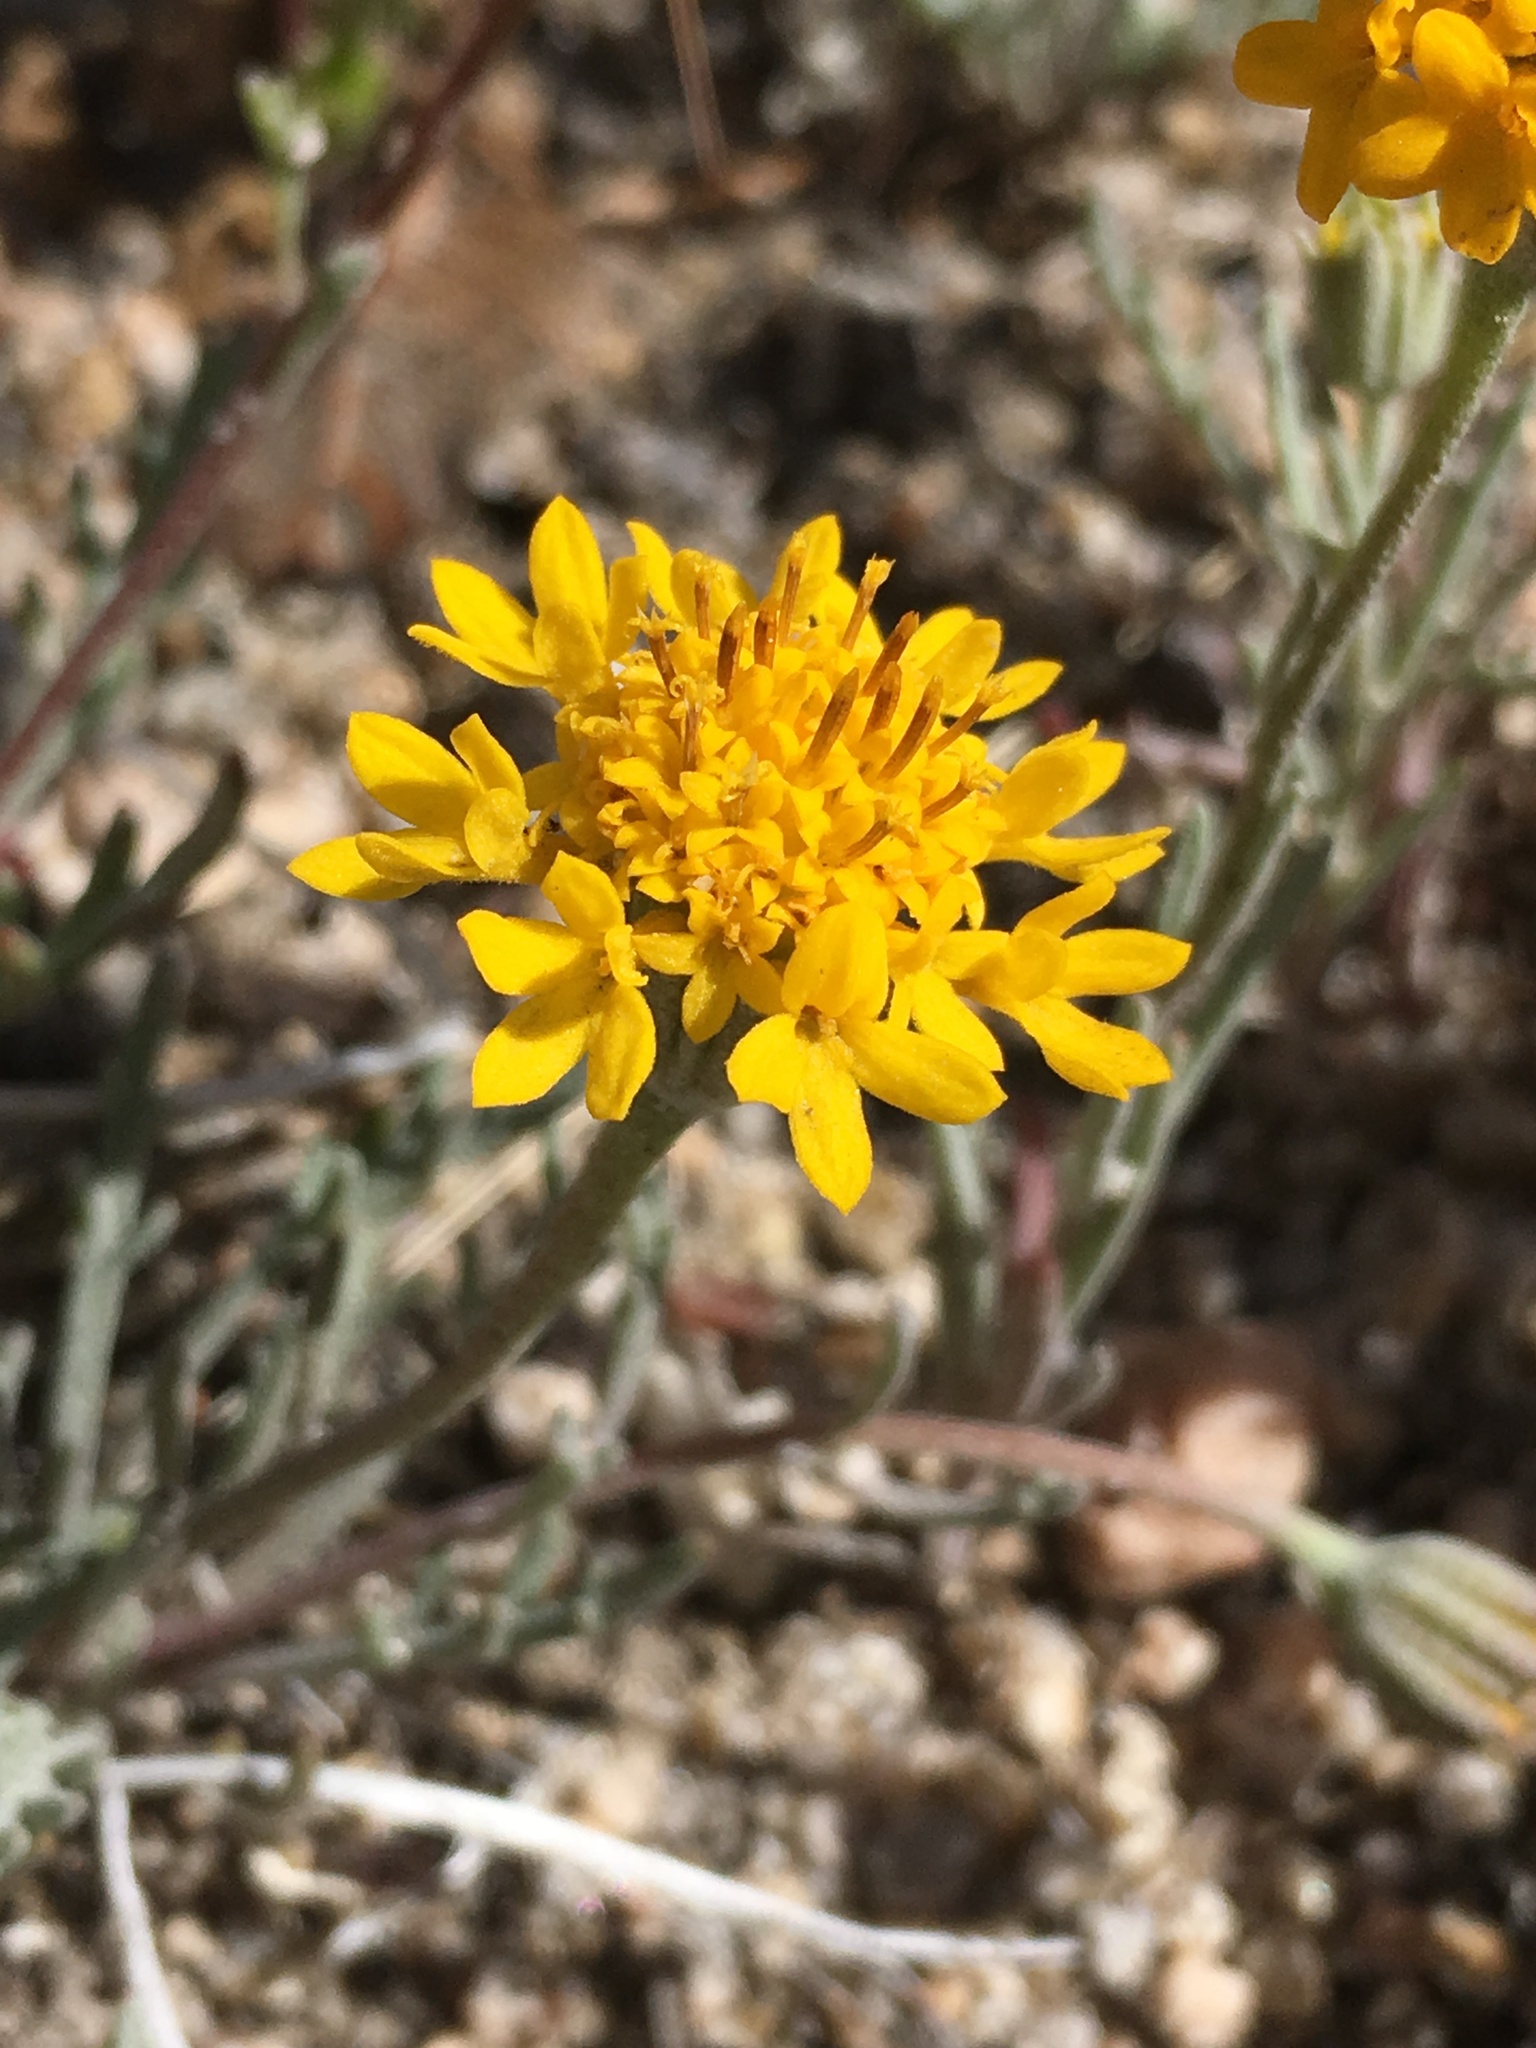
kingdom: Plantae
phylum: Tracheophyta
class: Magnoliopsida
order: Asterales
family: Asteraceae
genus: Chaenactis
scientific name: Chaenactis glabriuscula
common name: Yellow pincushion
